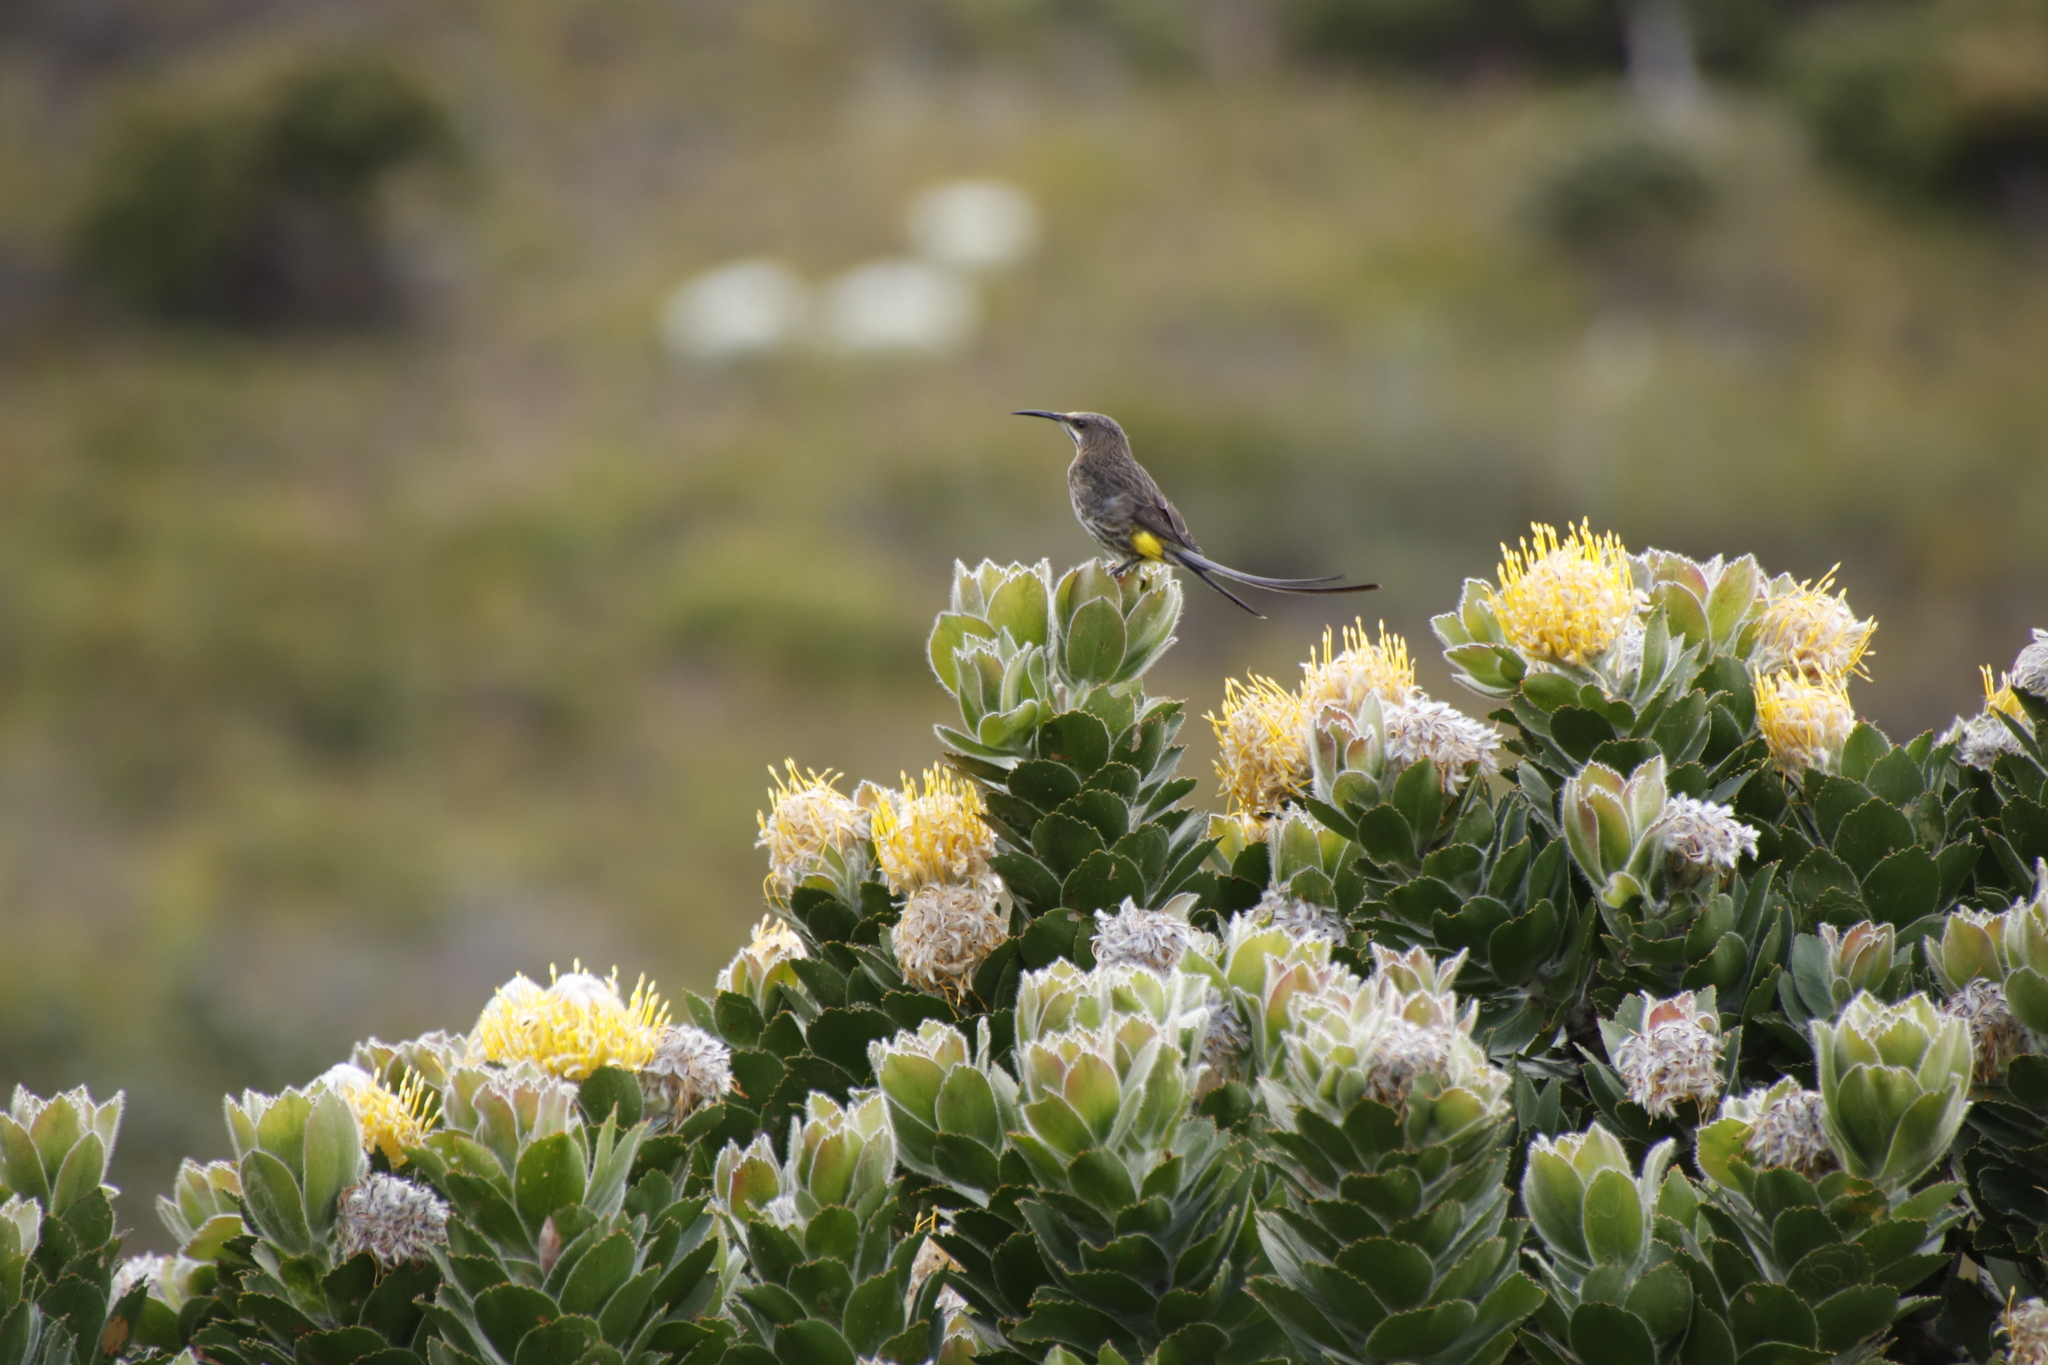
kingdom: Plantae
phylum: Tracheophyta
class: Magnoliopsida
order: Proteales
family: Proteaceae
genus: Leucospermum
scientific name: Leucospermum conocarpodendron
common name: Tree pincushion
